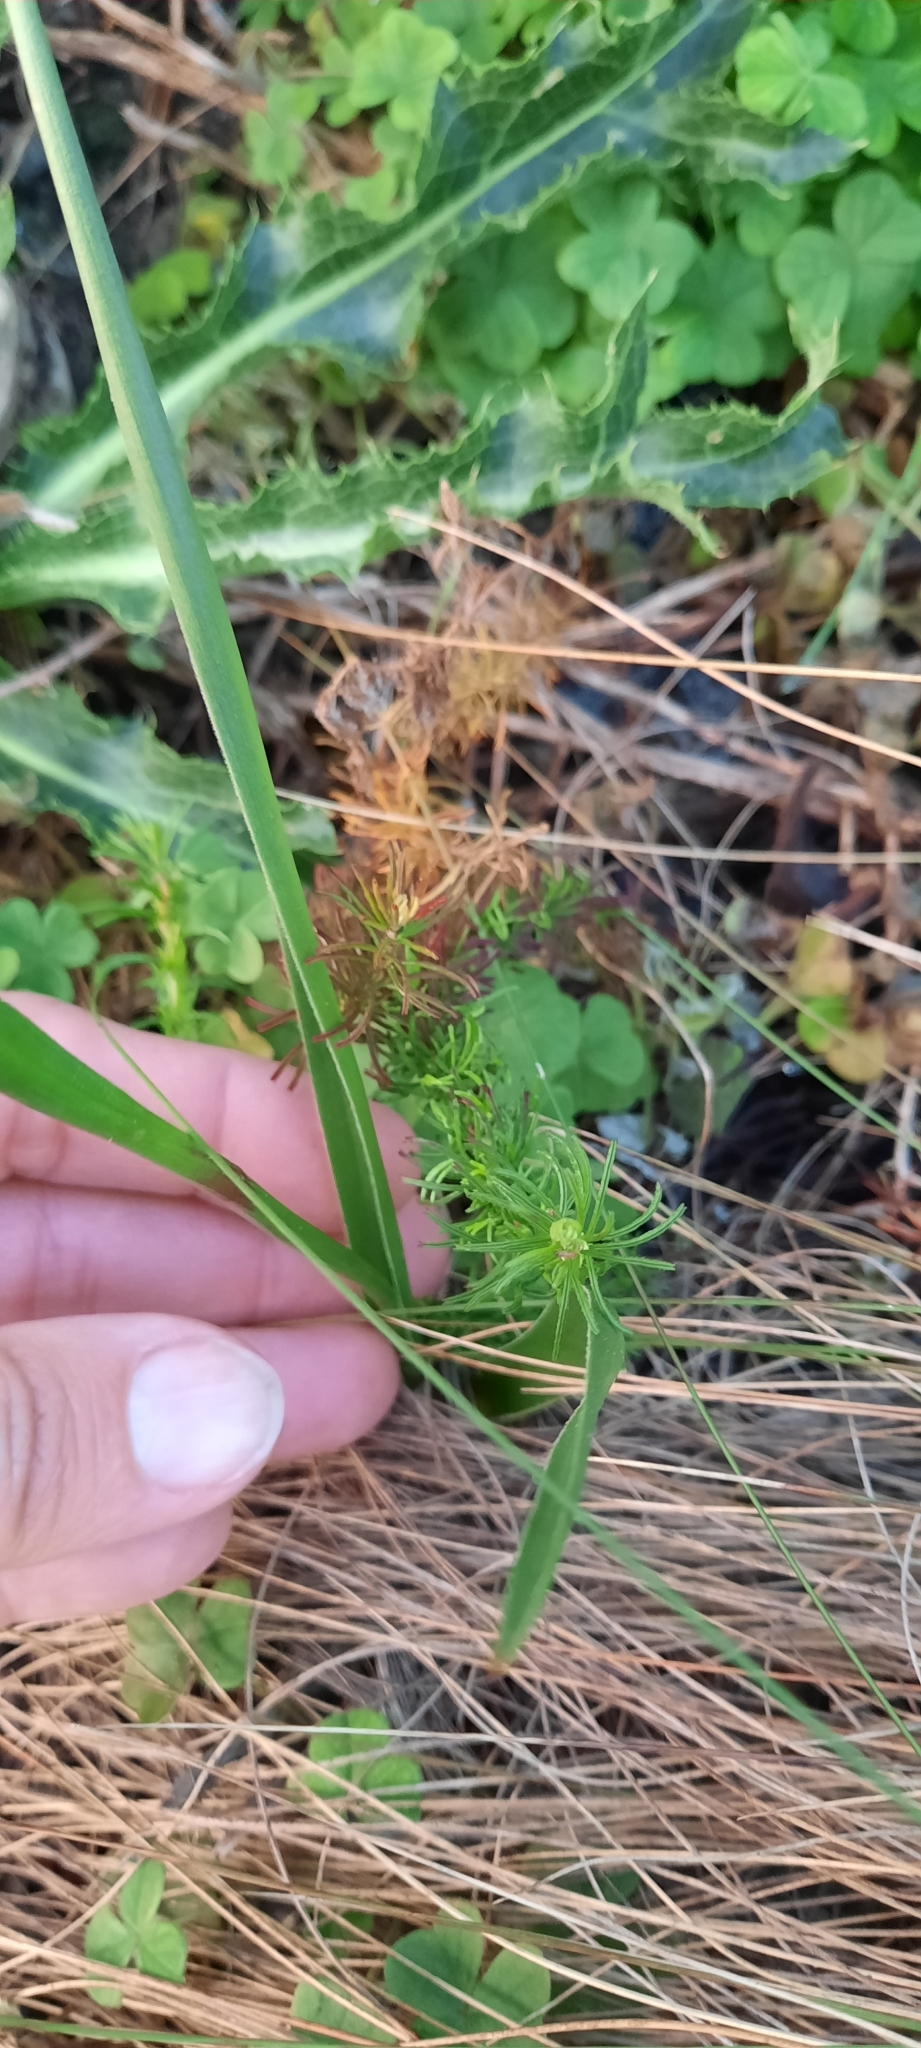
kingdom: Plantae
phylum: Tracheophyta
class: Liliopsida
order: Liliales
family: Colchicaceae
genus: Wurmbea
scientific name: Wurmbea punctata
